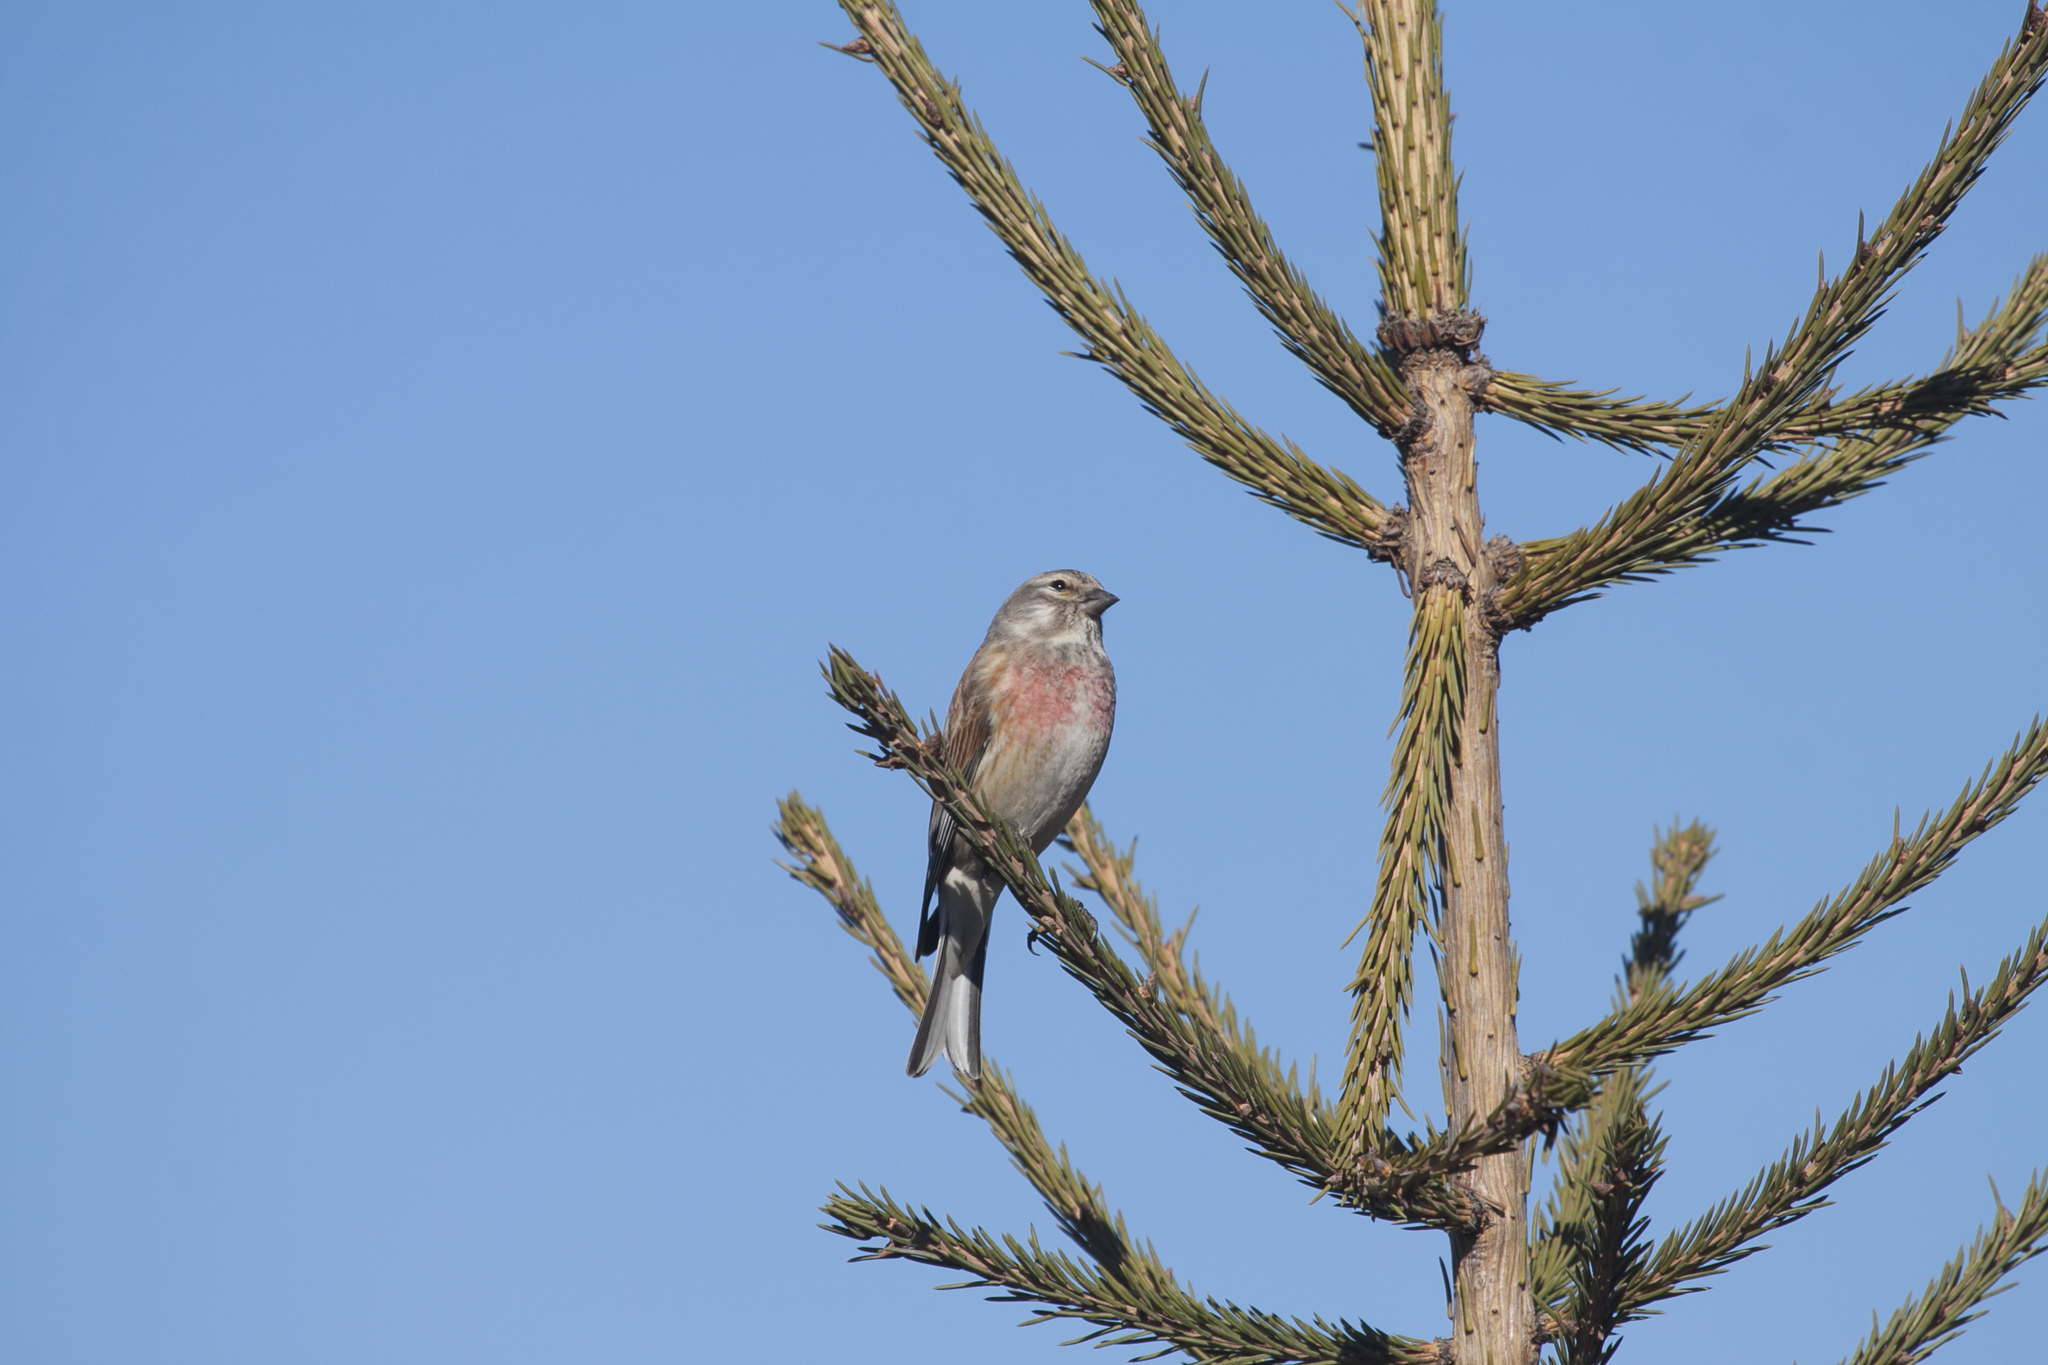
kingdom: Animalia
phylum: Chordata
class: Aves
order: Passeriformes
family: Fringillidae
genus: Linaria
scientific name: Linaria cannabina
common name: Common linnet
